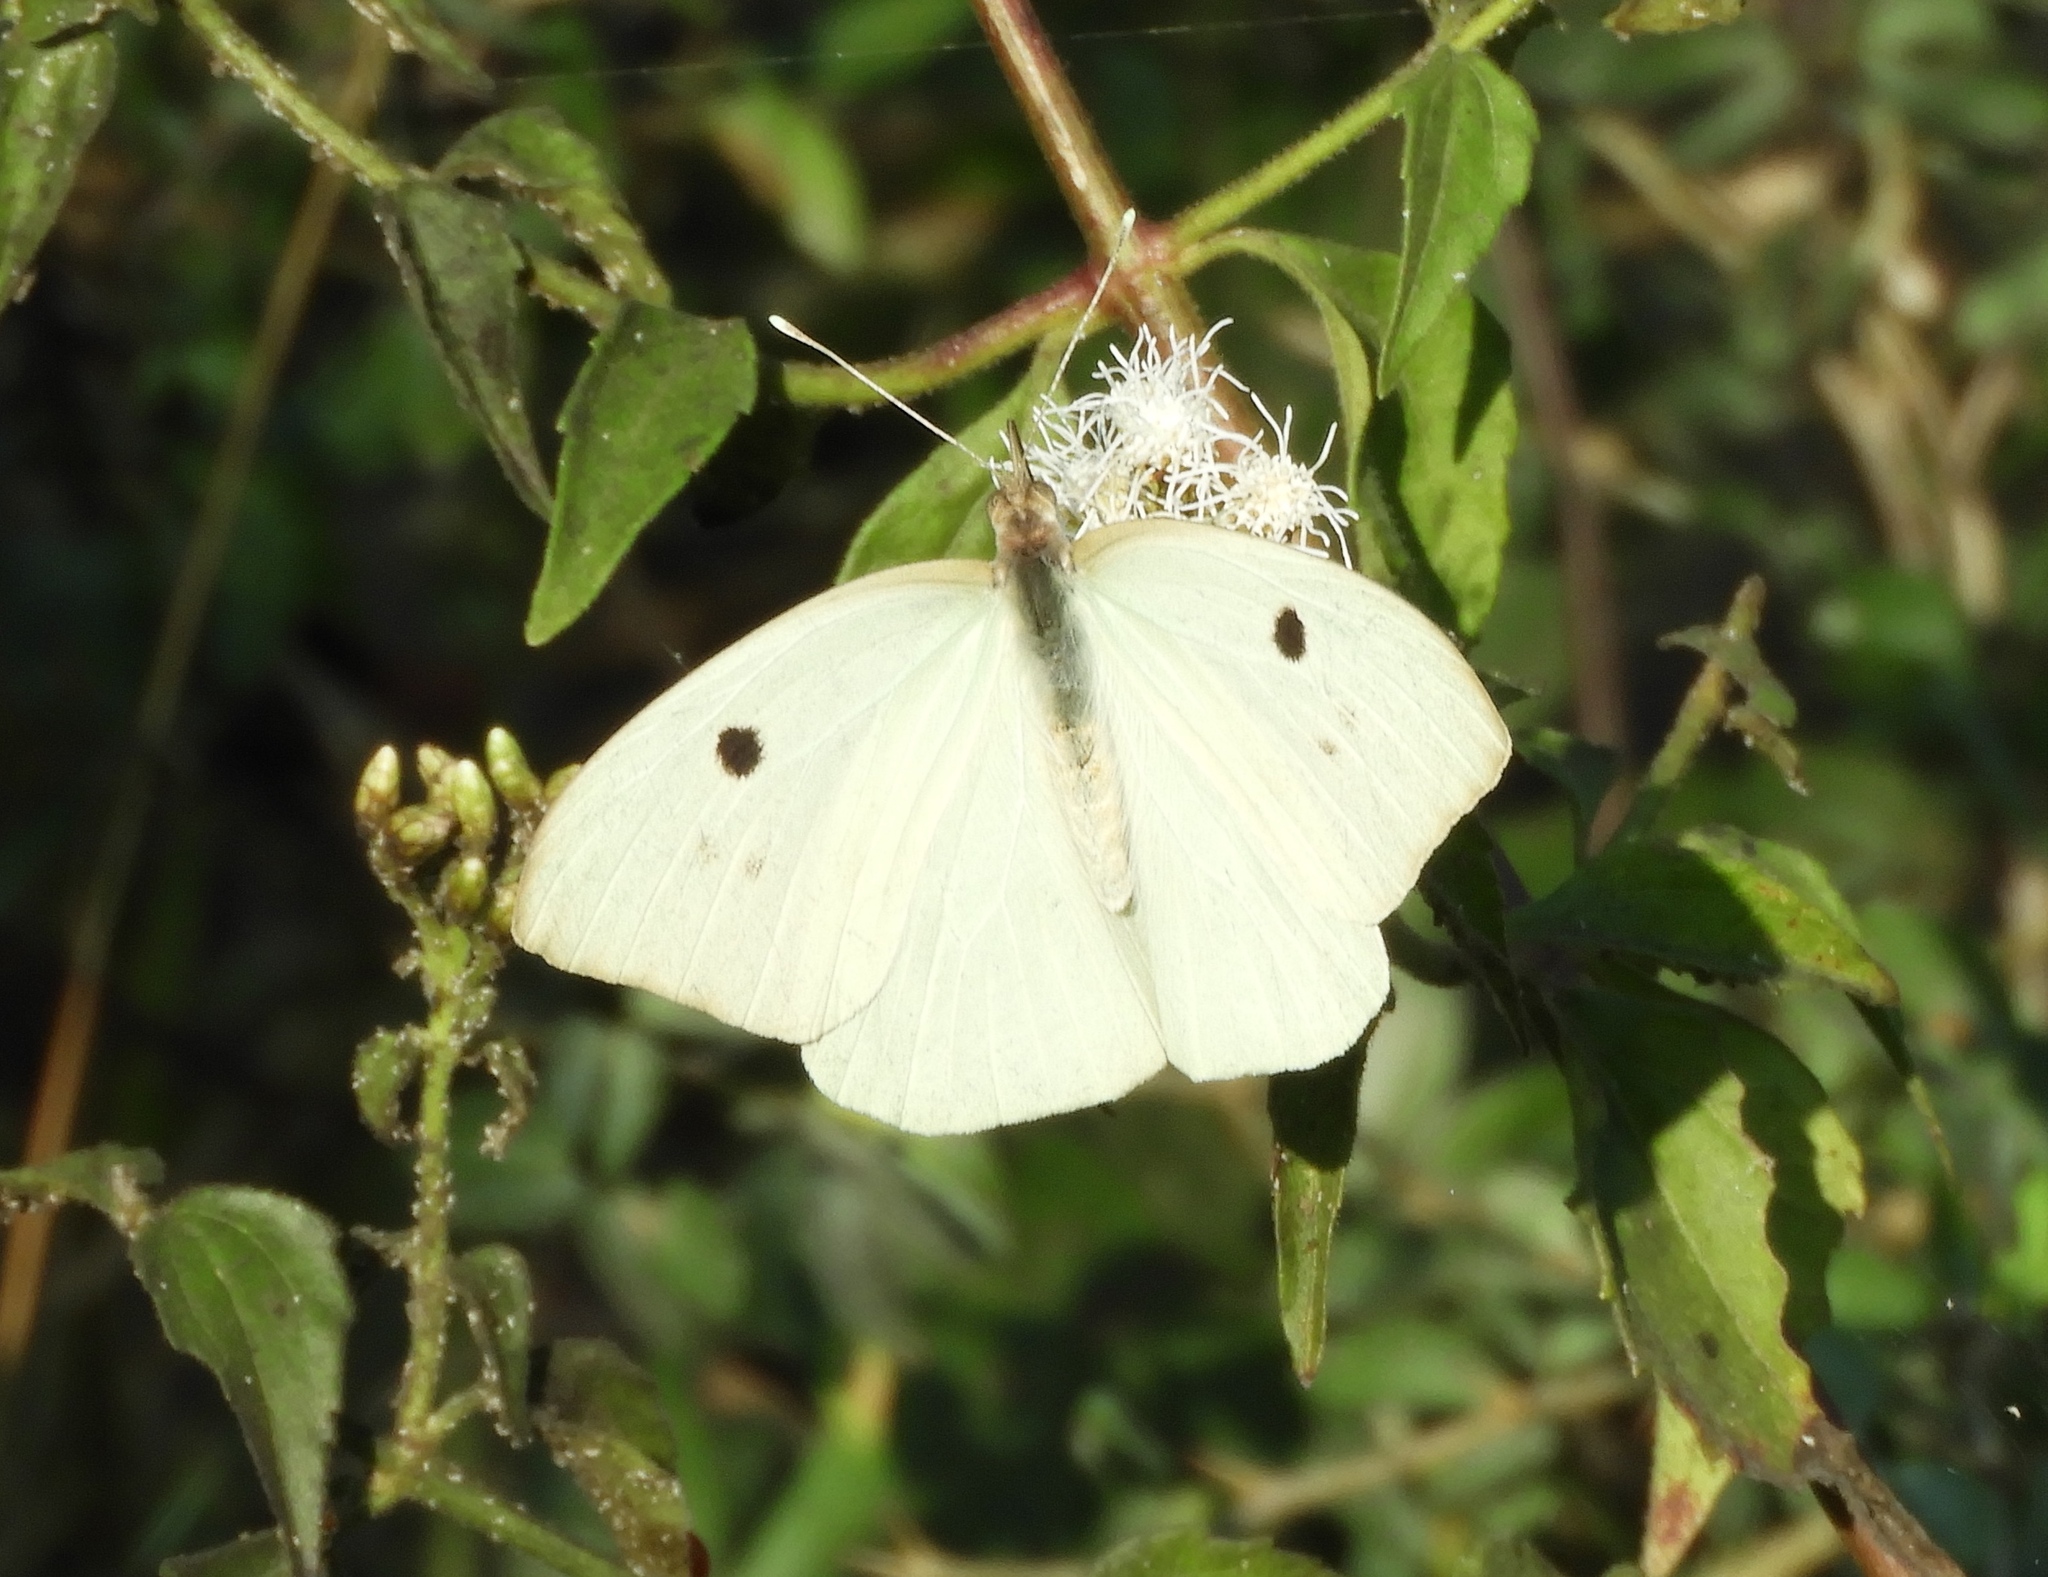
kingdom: Animalia
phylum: Arthropoda
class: Insecta
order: Lepidoptera
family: Pieridae
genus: Ganyra
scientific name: Ganyra josephina
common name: Giant white
